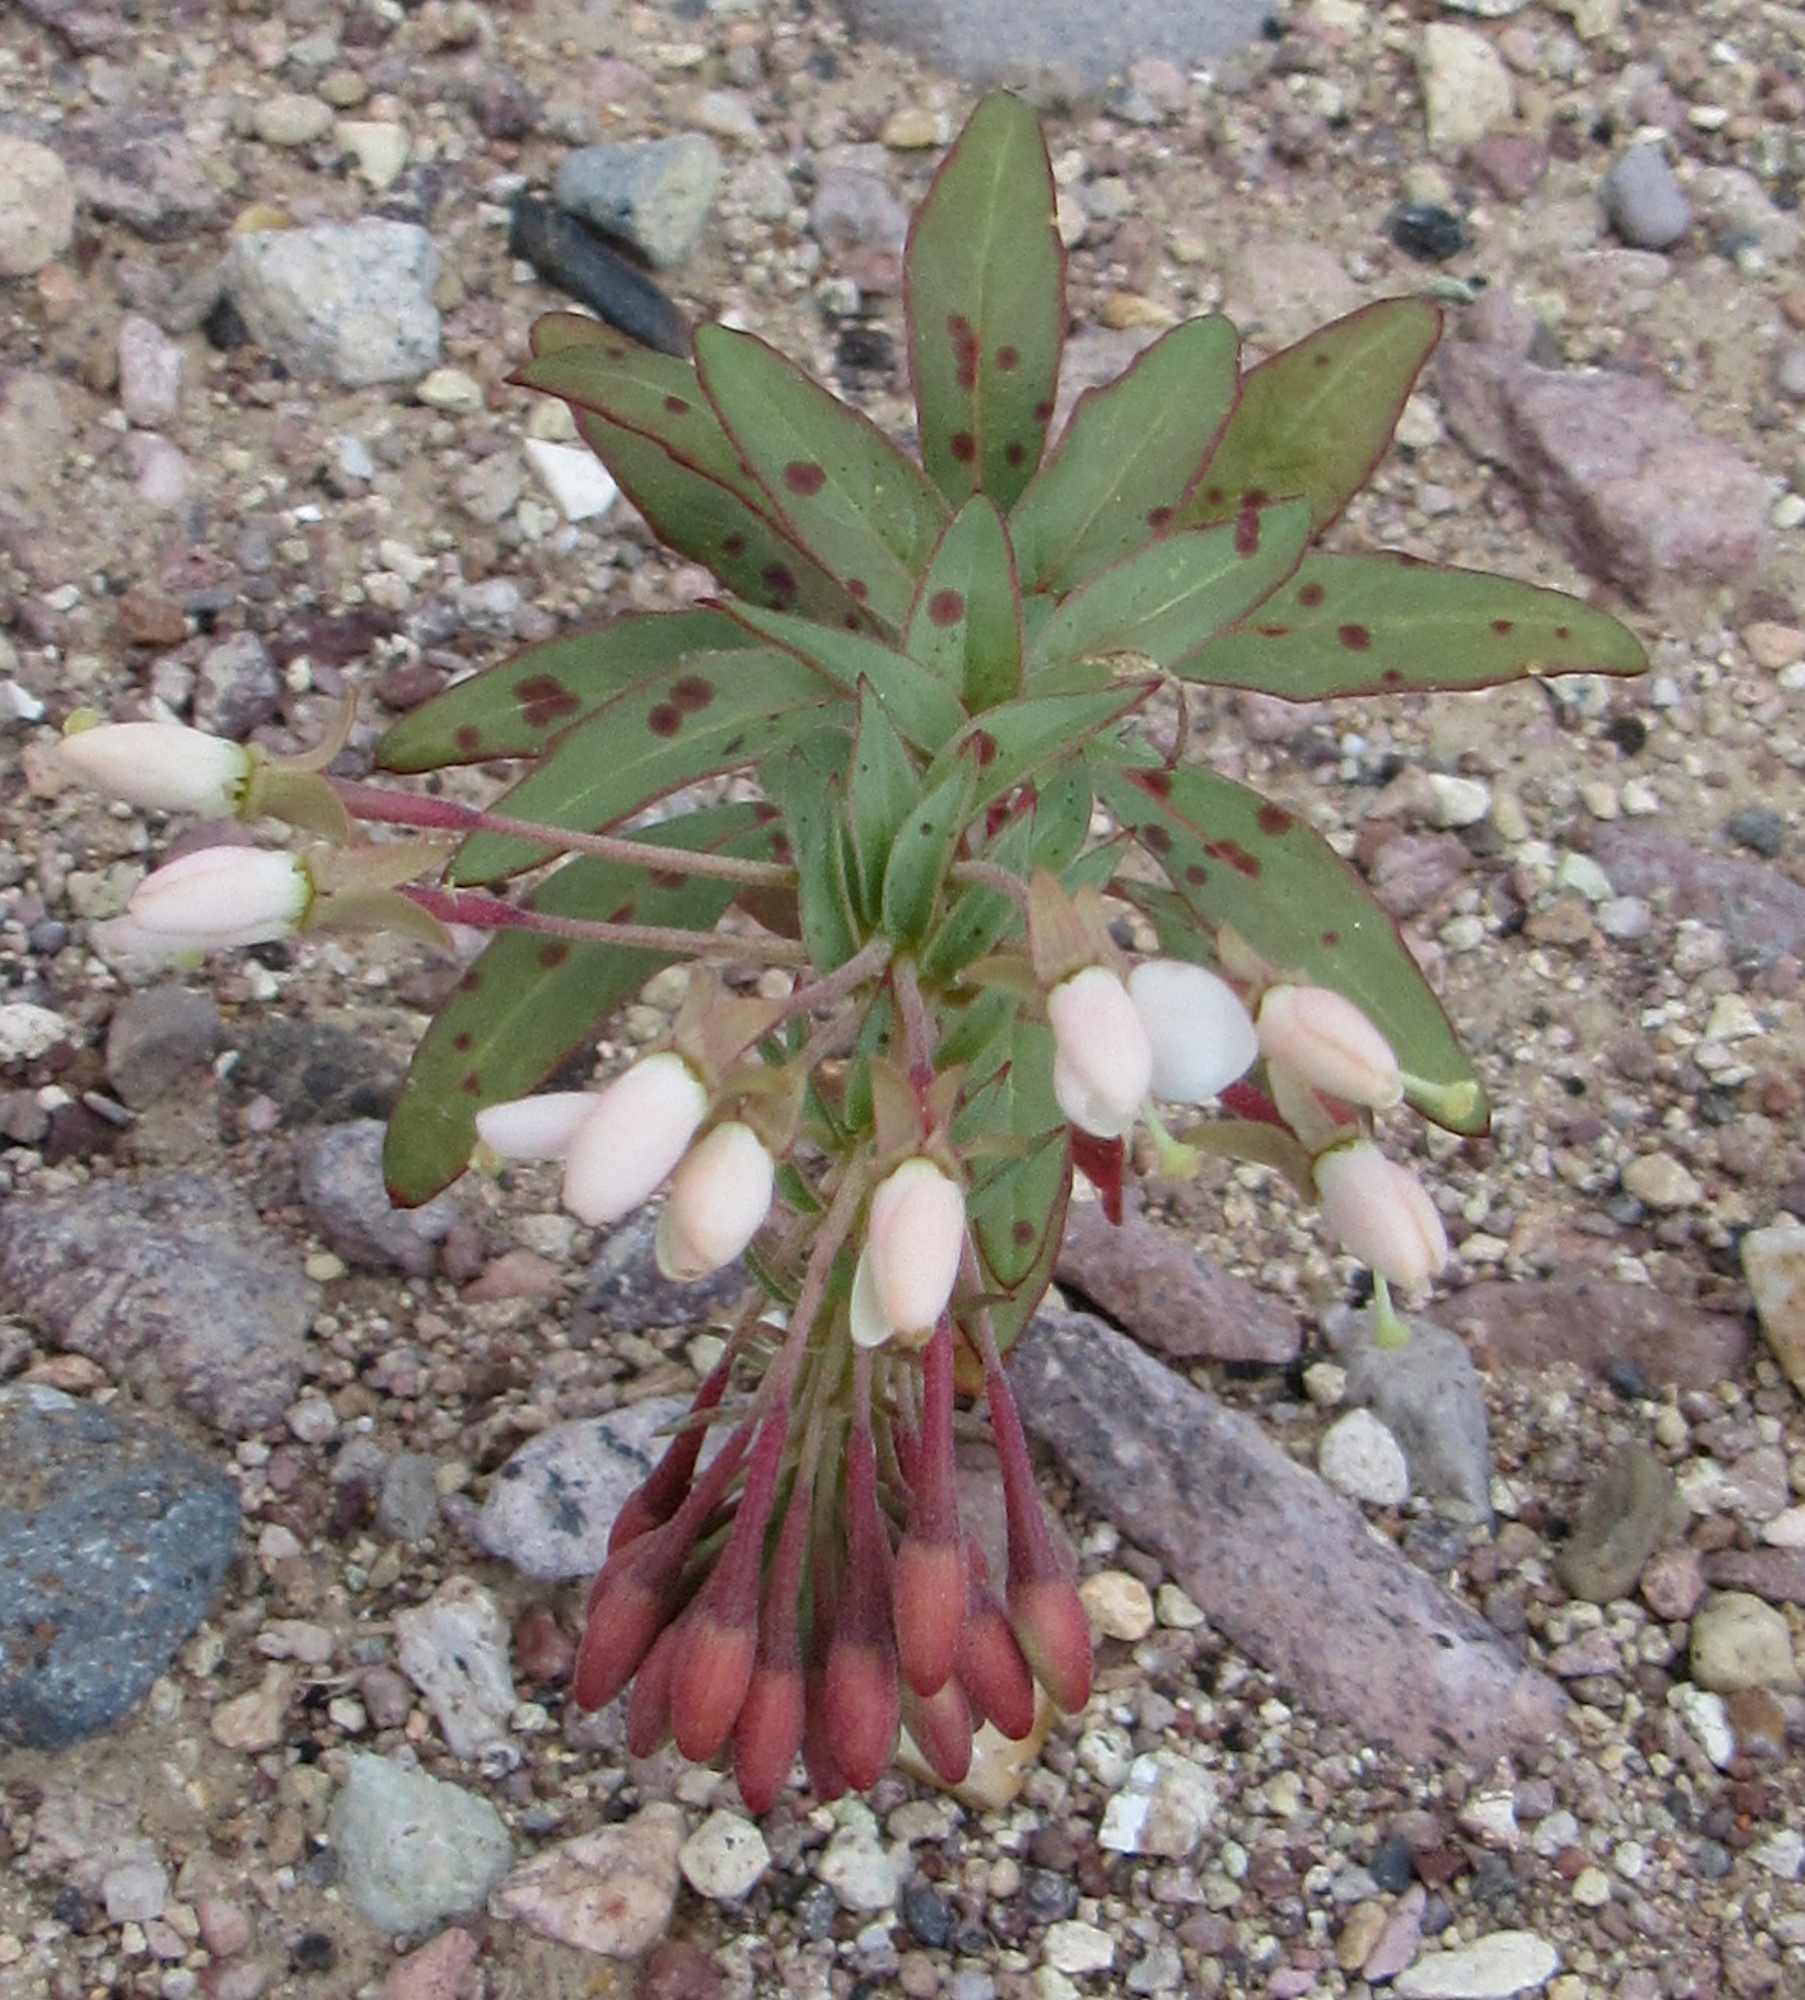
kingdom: Plantae
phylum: Tracheophyta
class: Magnoliopsida
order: Myrtales
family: Onagraceae
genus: Eremothera
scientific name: Eremothera boothii
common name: Booth's evening primrose
